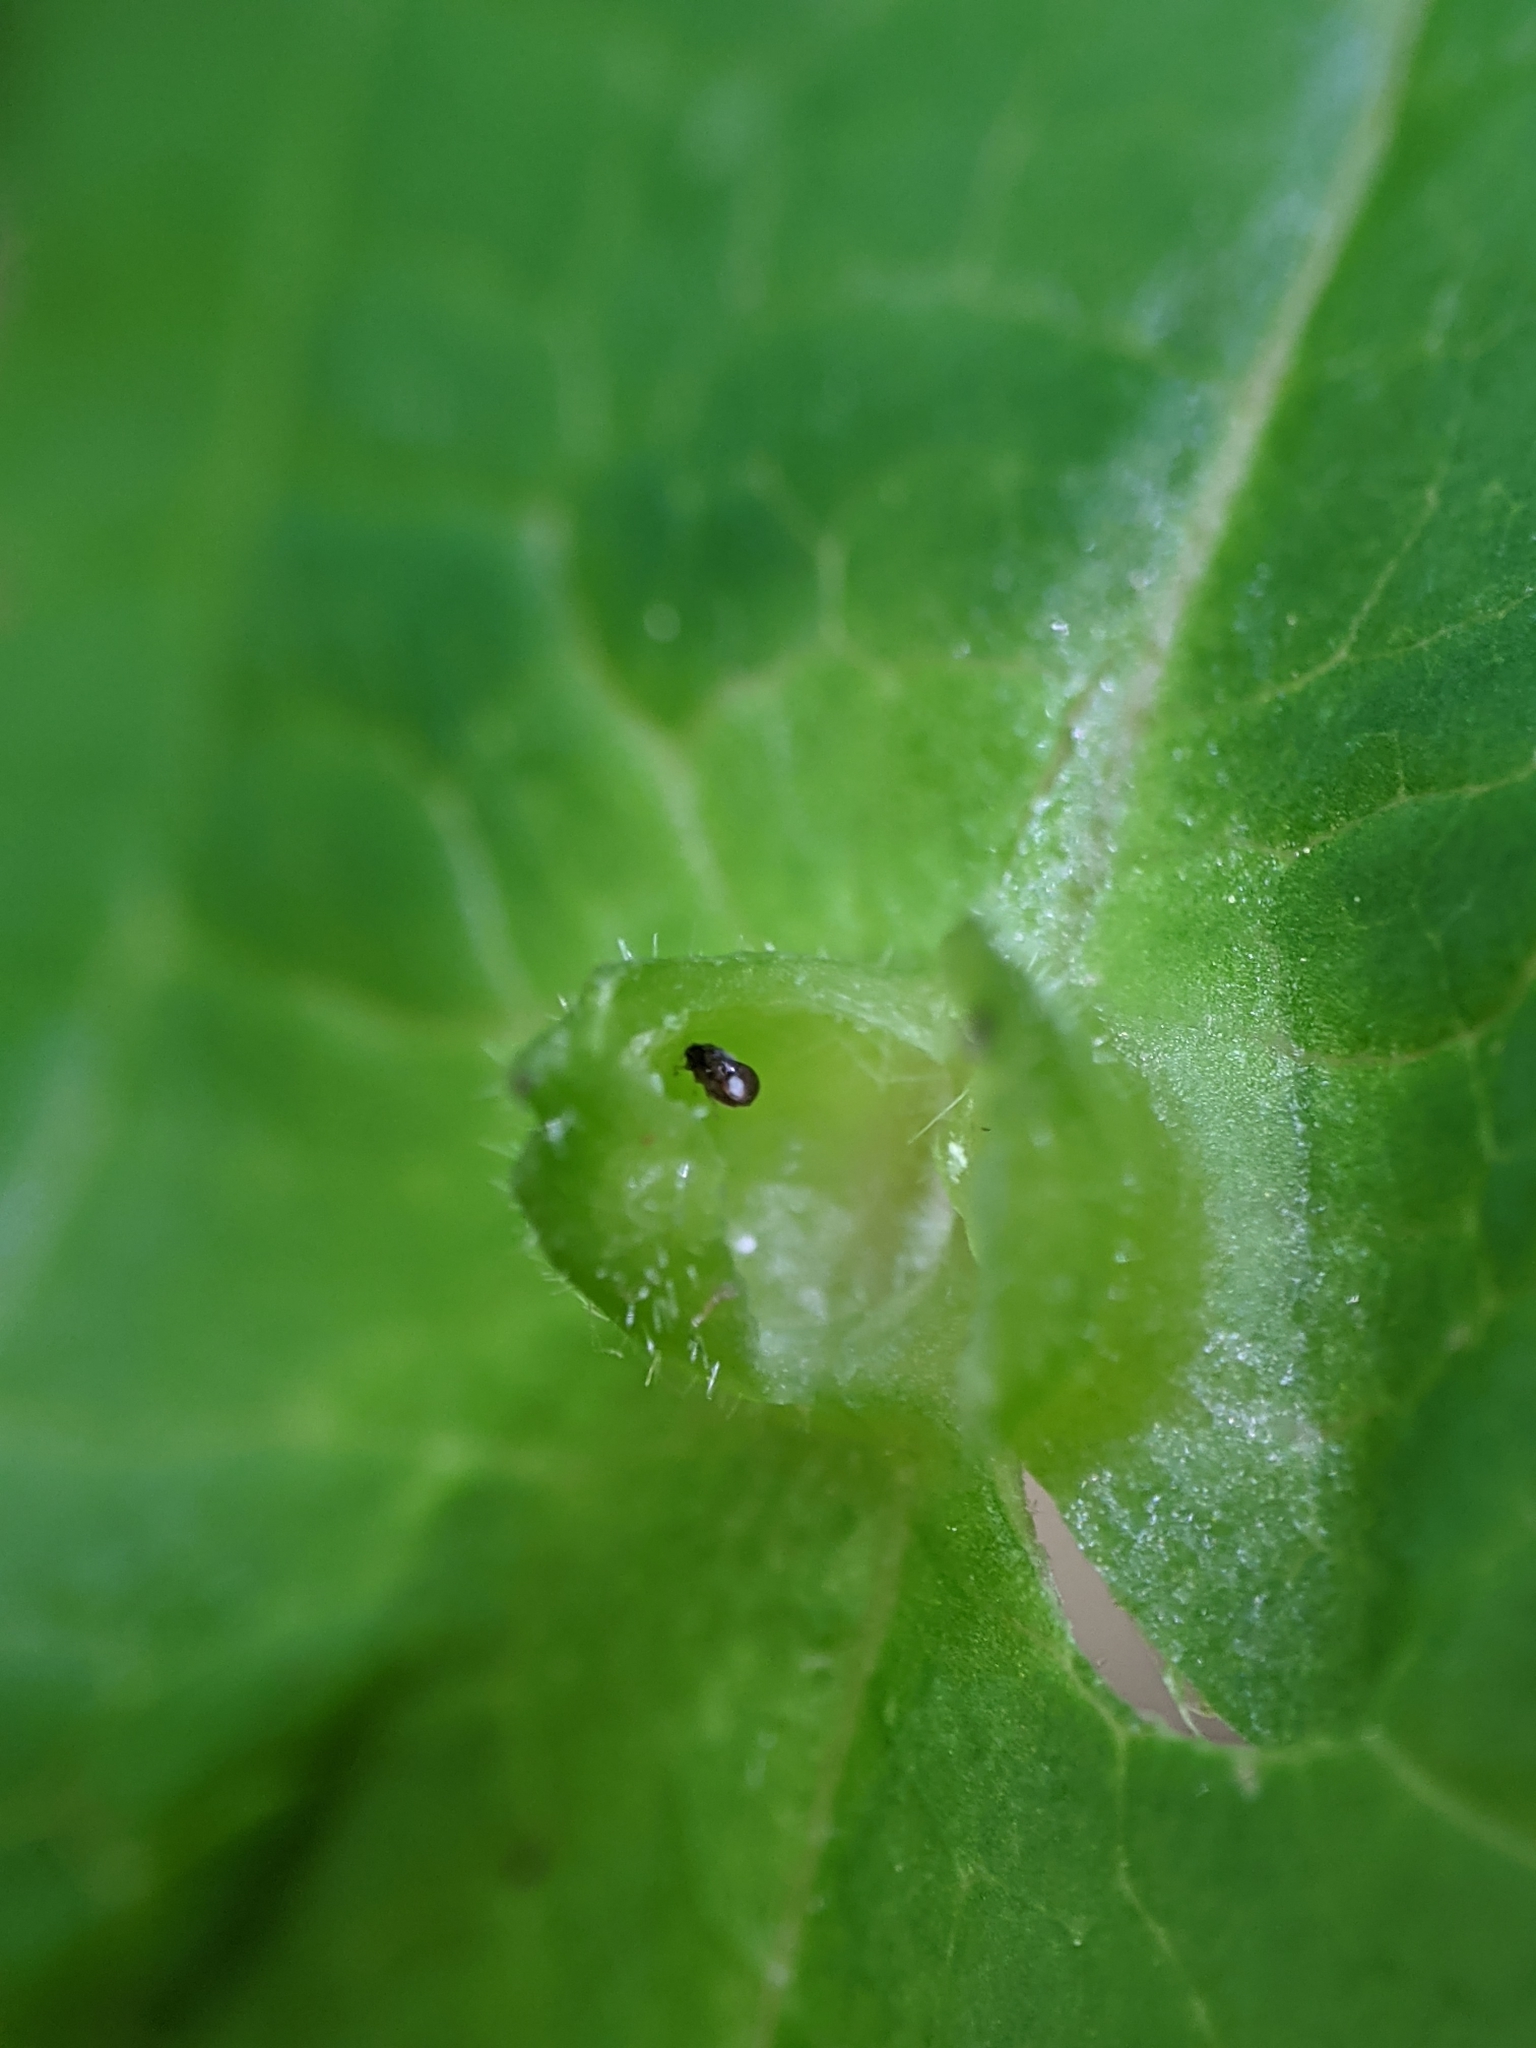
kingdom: Animalia
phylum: Arthropoda
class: Insecta
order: Hemiptera
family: Aphididae
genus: Hormaphis
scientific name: Hormaphis hamamelidis
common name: Witch-hazel cone gall aphid
